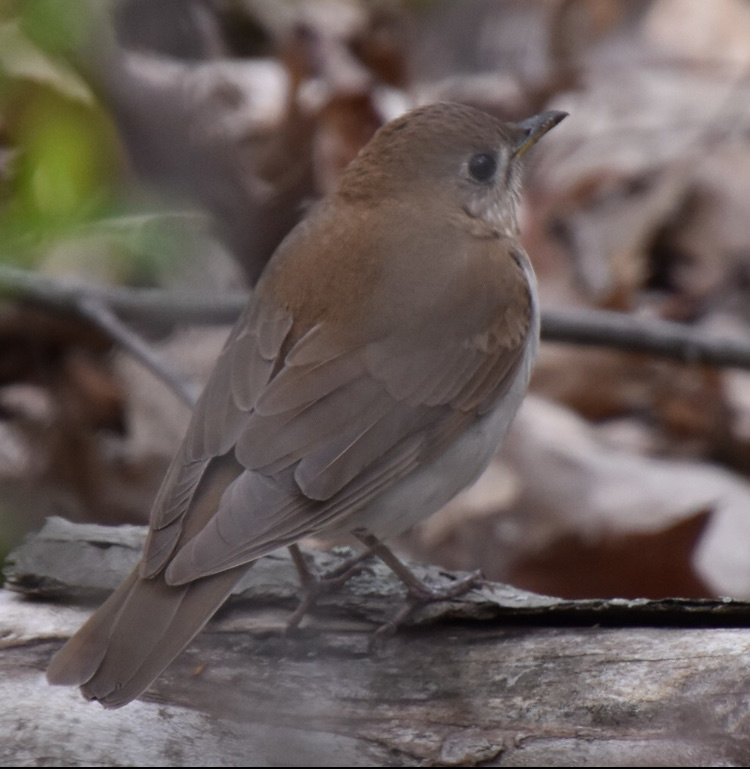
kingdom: Animalia
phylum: Chordata
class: Aves
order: Passeriformes
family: Turdidae
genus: Catharus
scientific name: Catharus fuscescens
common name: Veery
